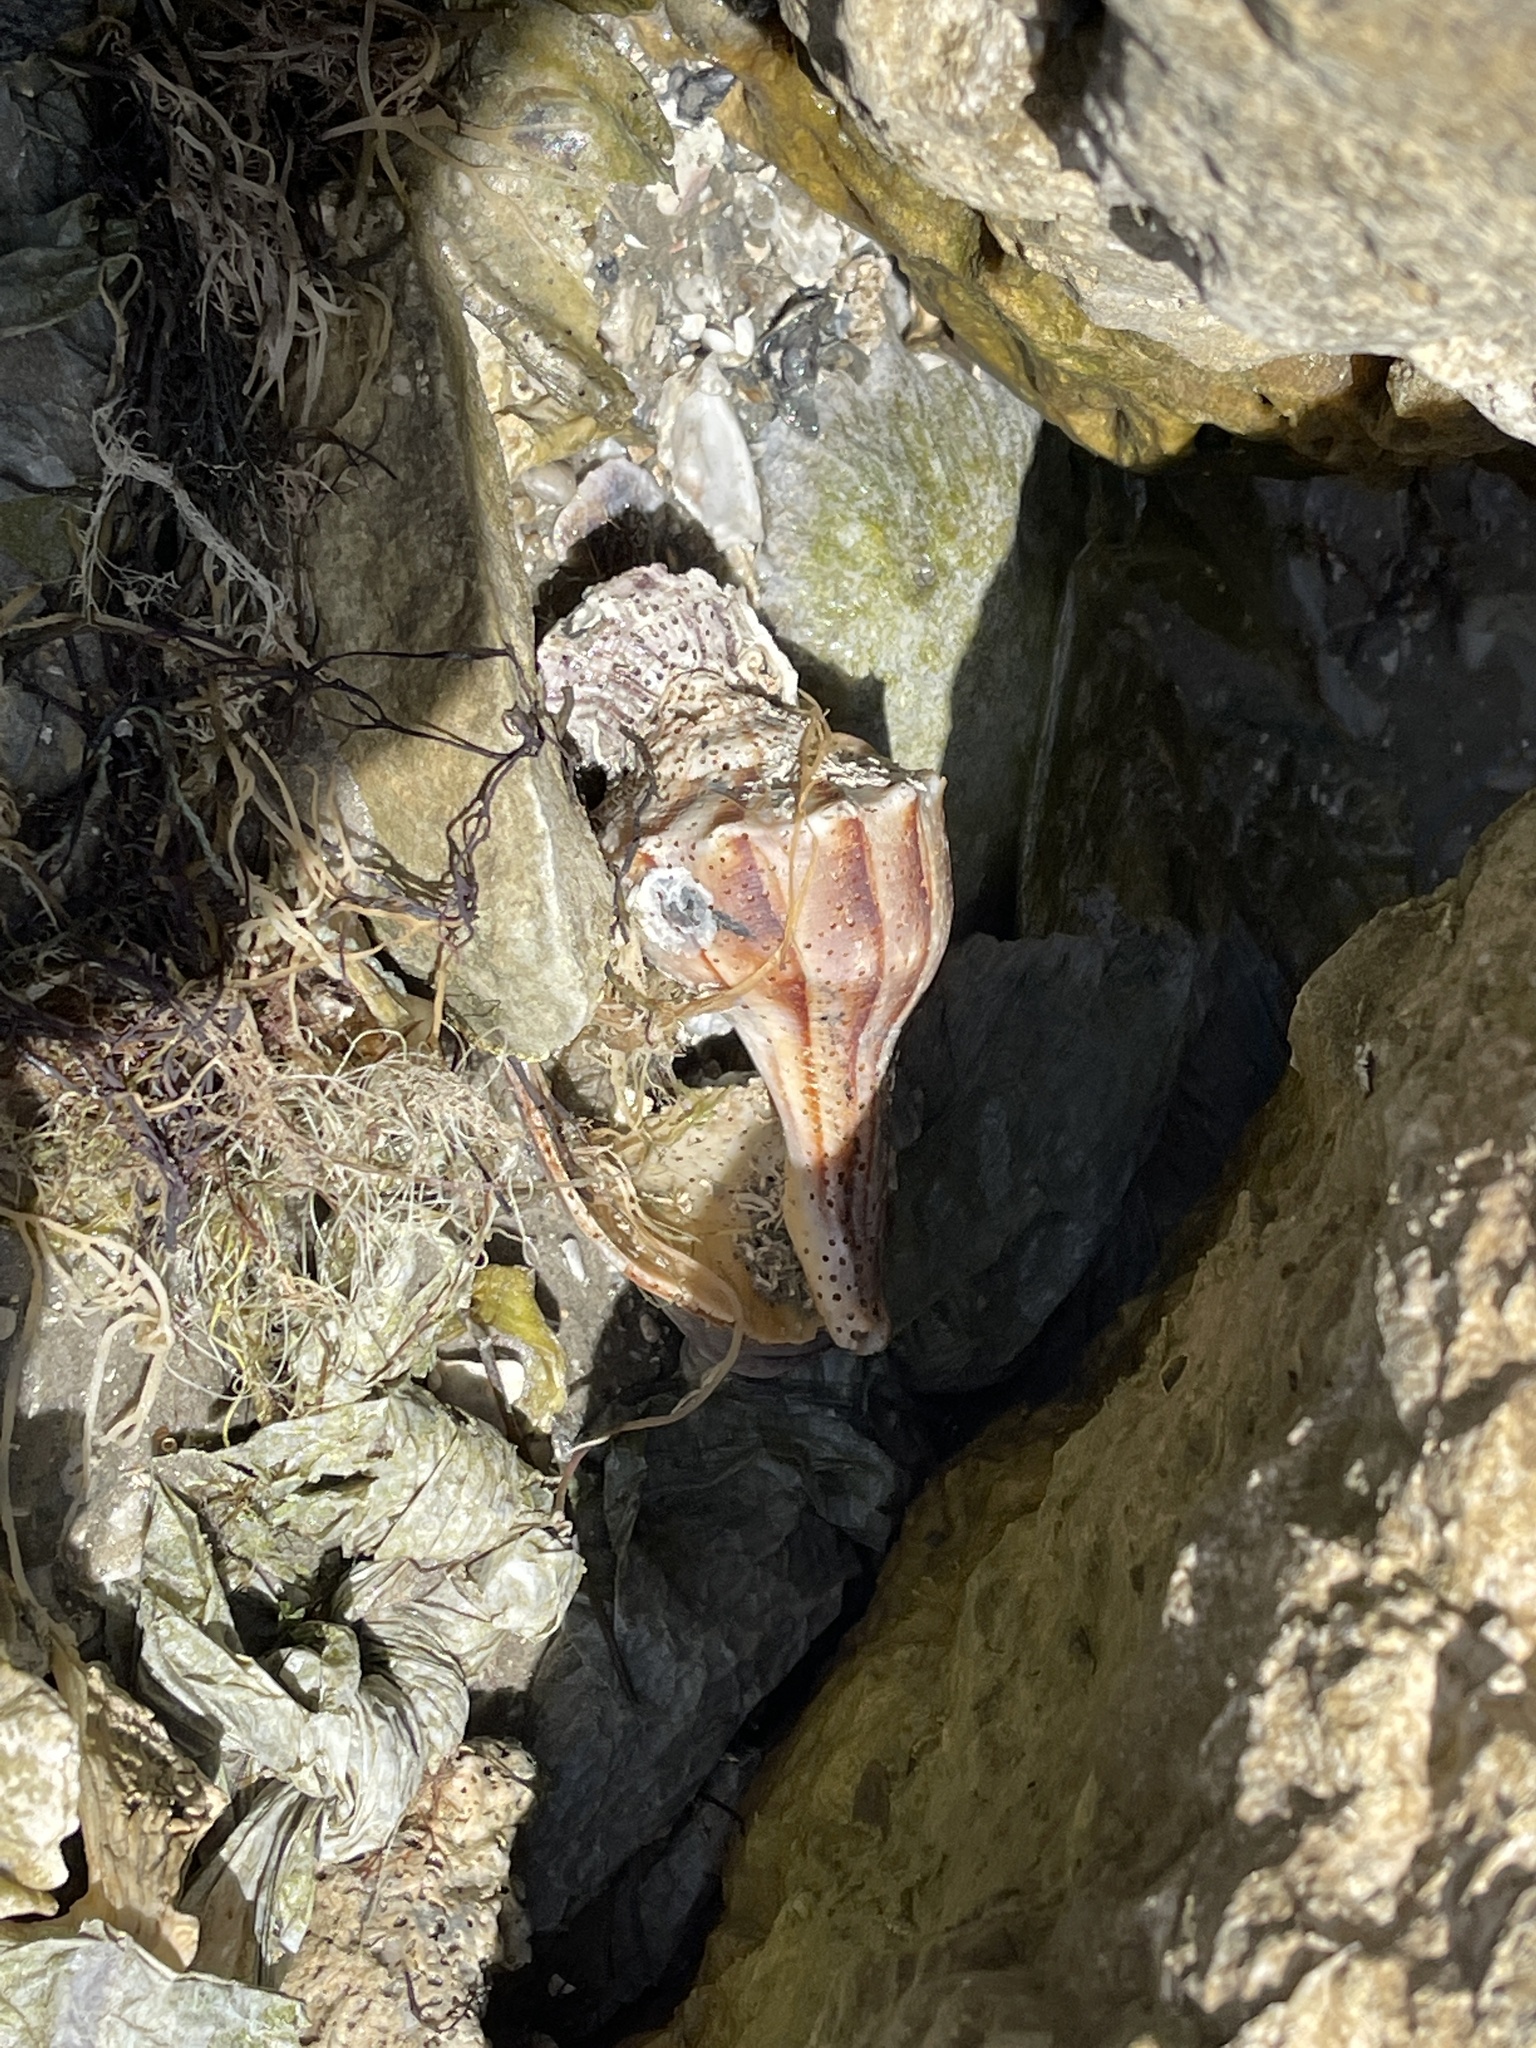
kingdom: Animalia
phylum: Mollusca
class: Gastropoda
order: Neogastropoda
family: Busyconidae
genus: Sinistrofulgur
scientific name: Sinistrofulgur pulleyi
